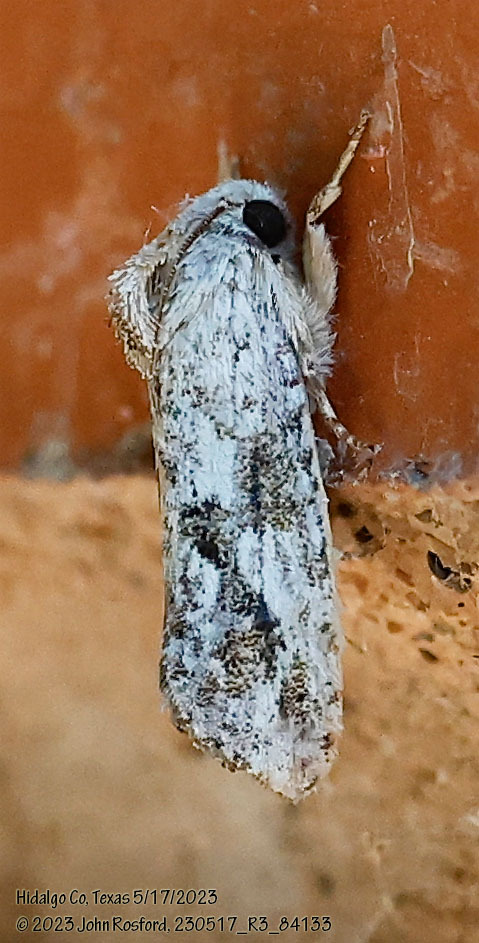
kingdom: Animalia
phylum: Arthropoda
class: Insecta
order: Lepidoptera
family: Tineidae
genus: Acrolophus
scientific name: Acrolophus griseus
